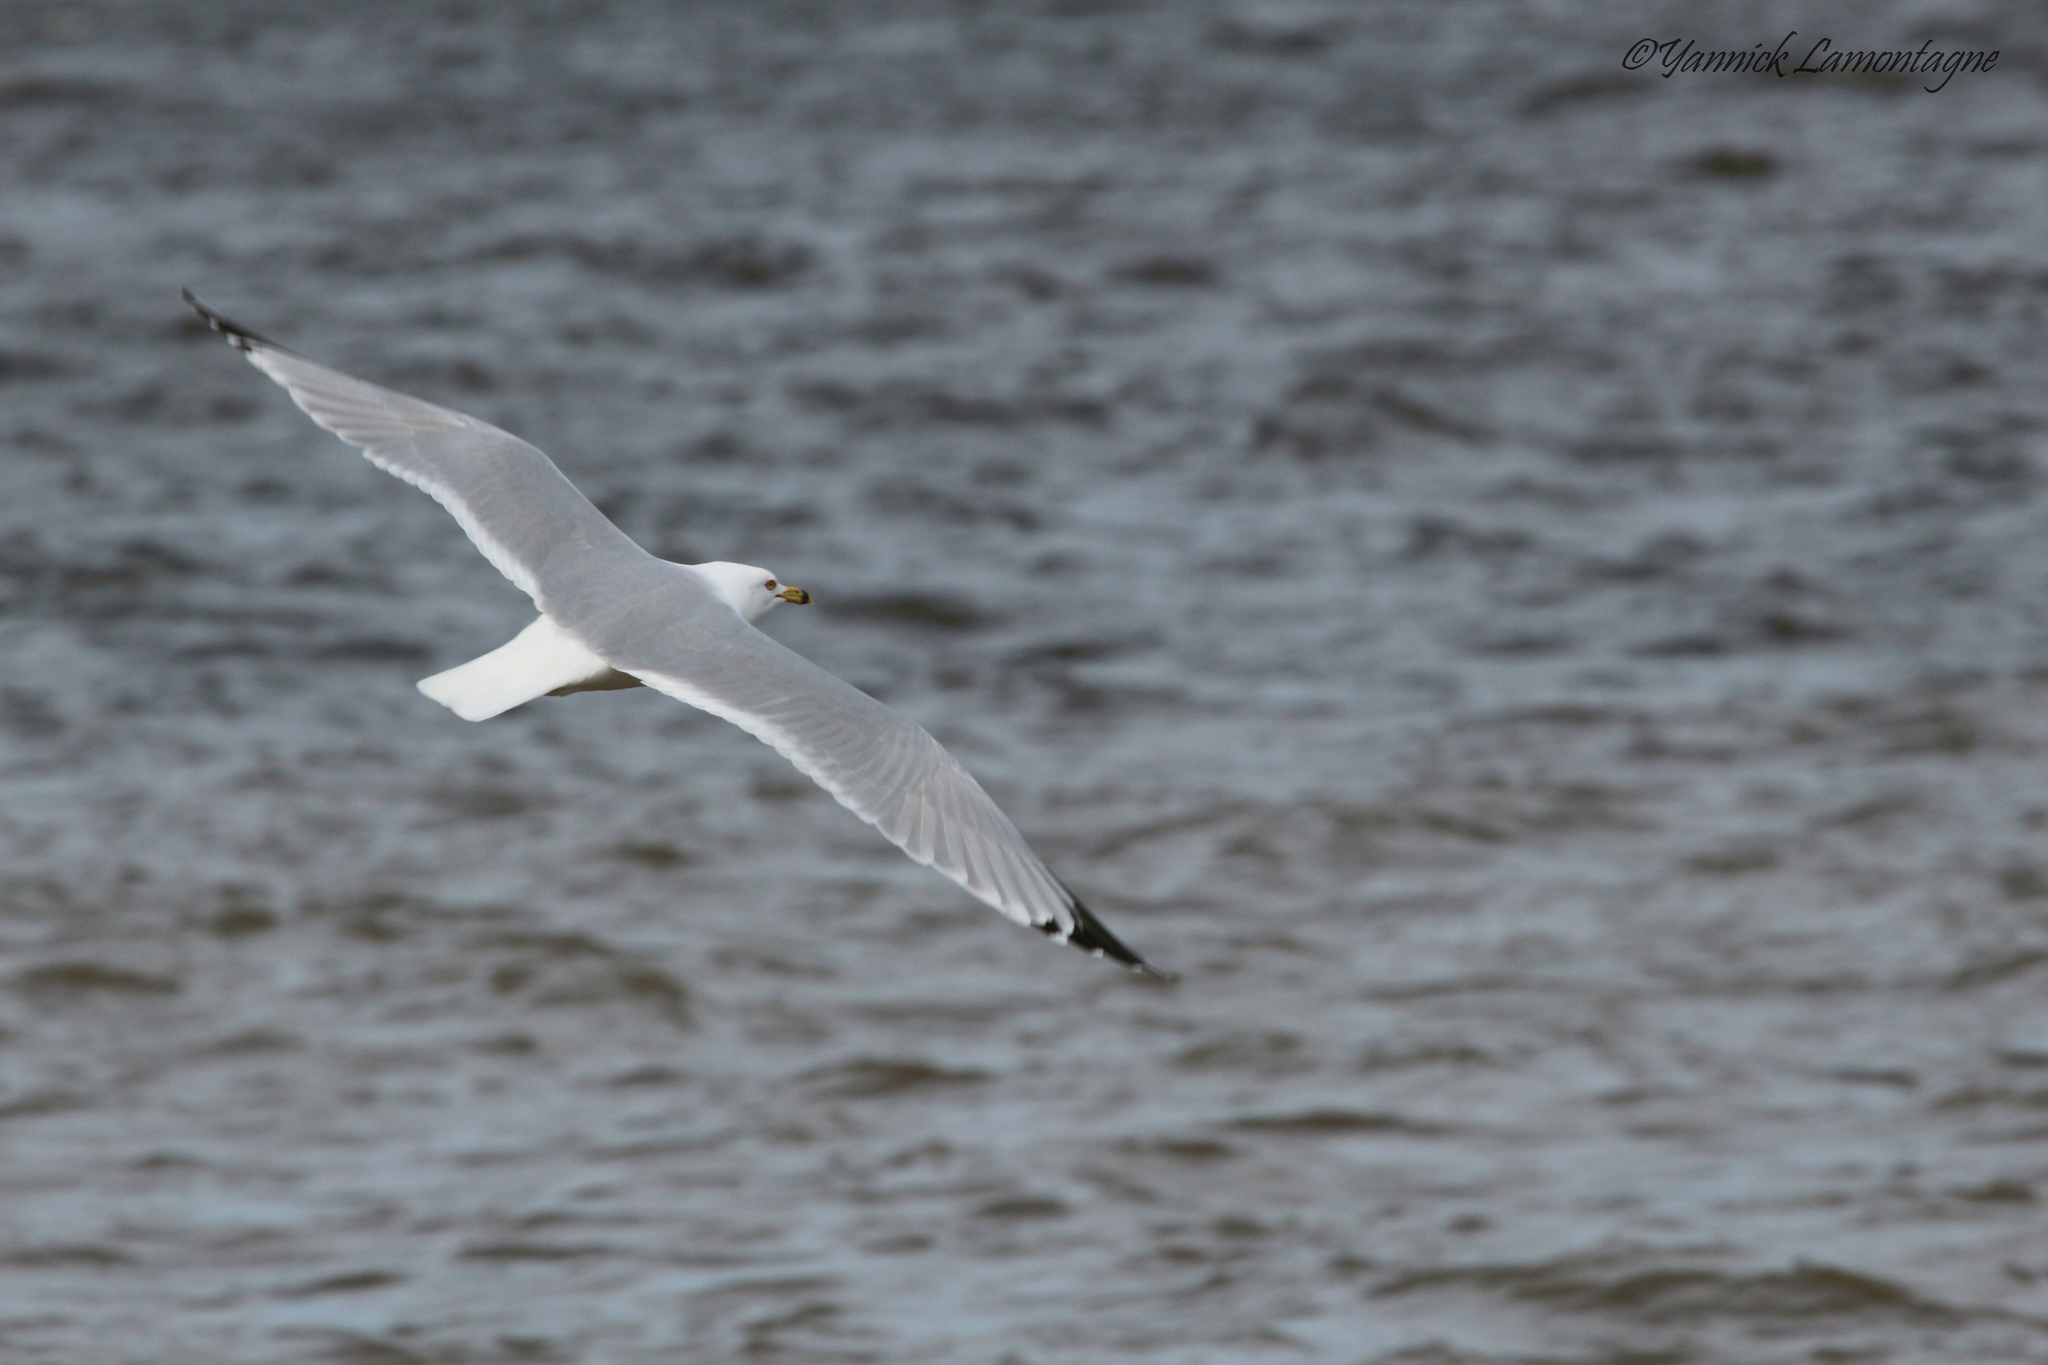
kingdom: Animalia
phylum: Chordata
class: Aves
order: Charadriiformes
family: Laridae
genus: Larus
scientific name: Larus delawarensis
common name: Ring-billed gull
